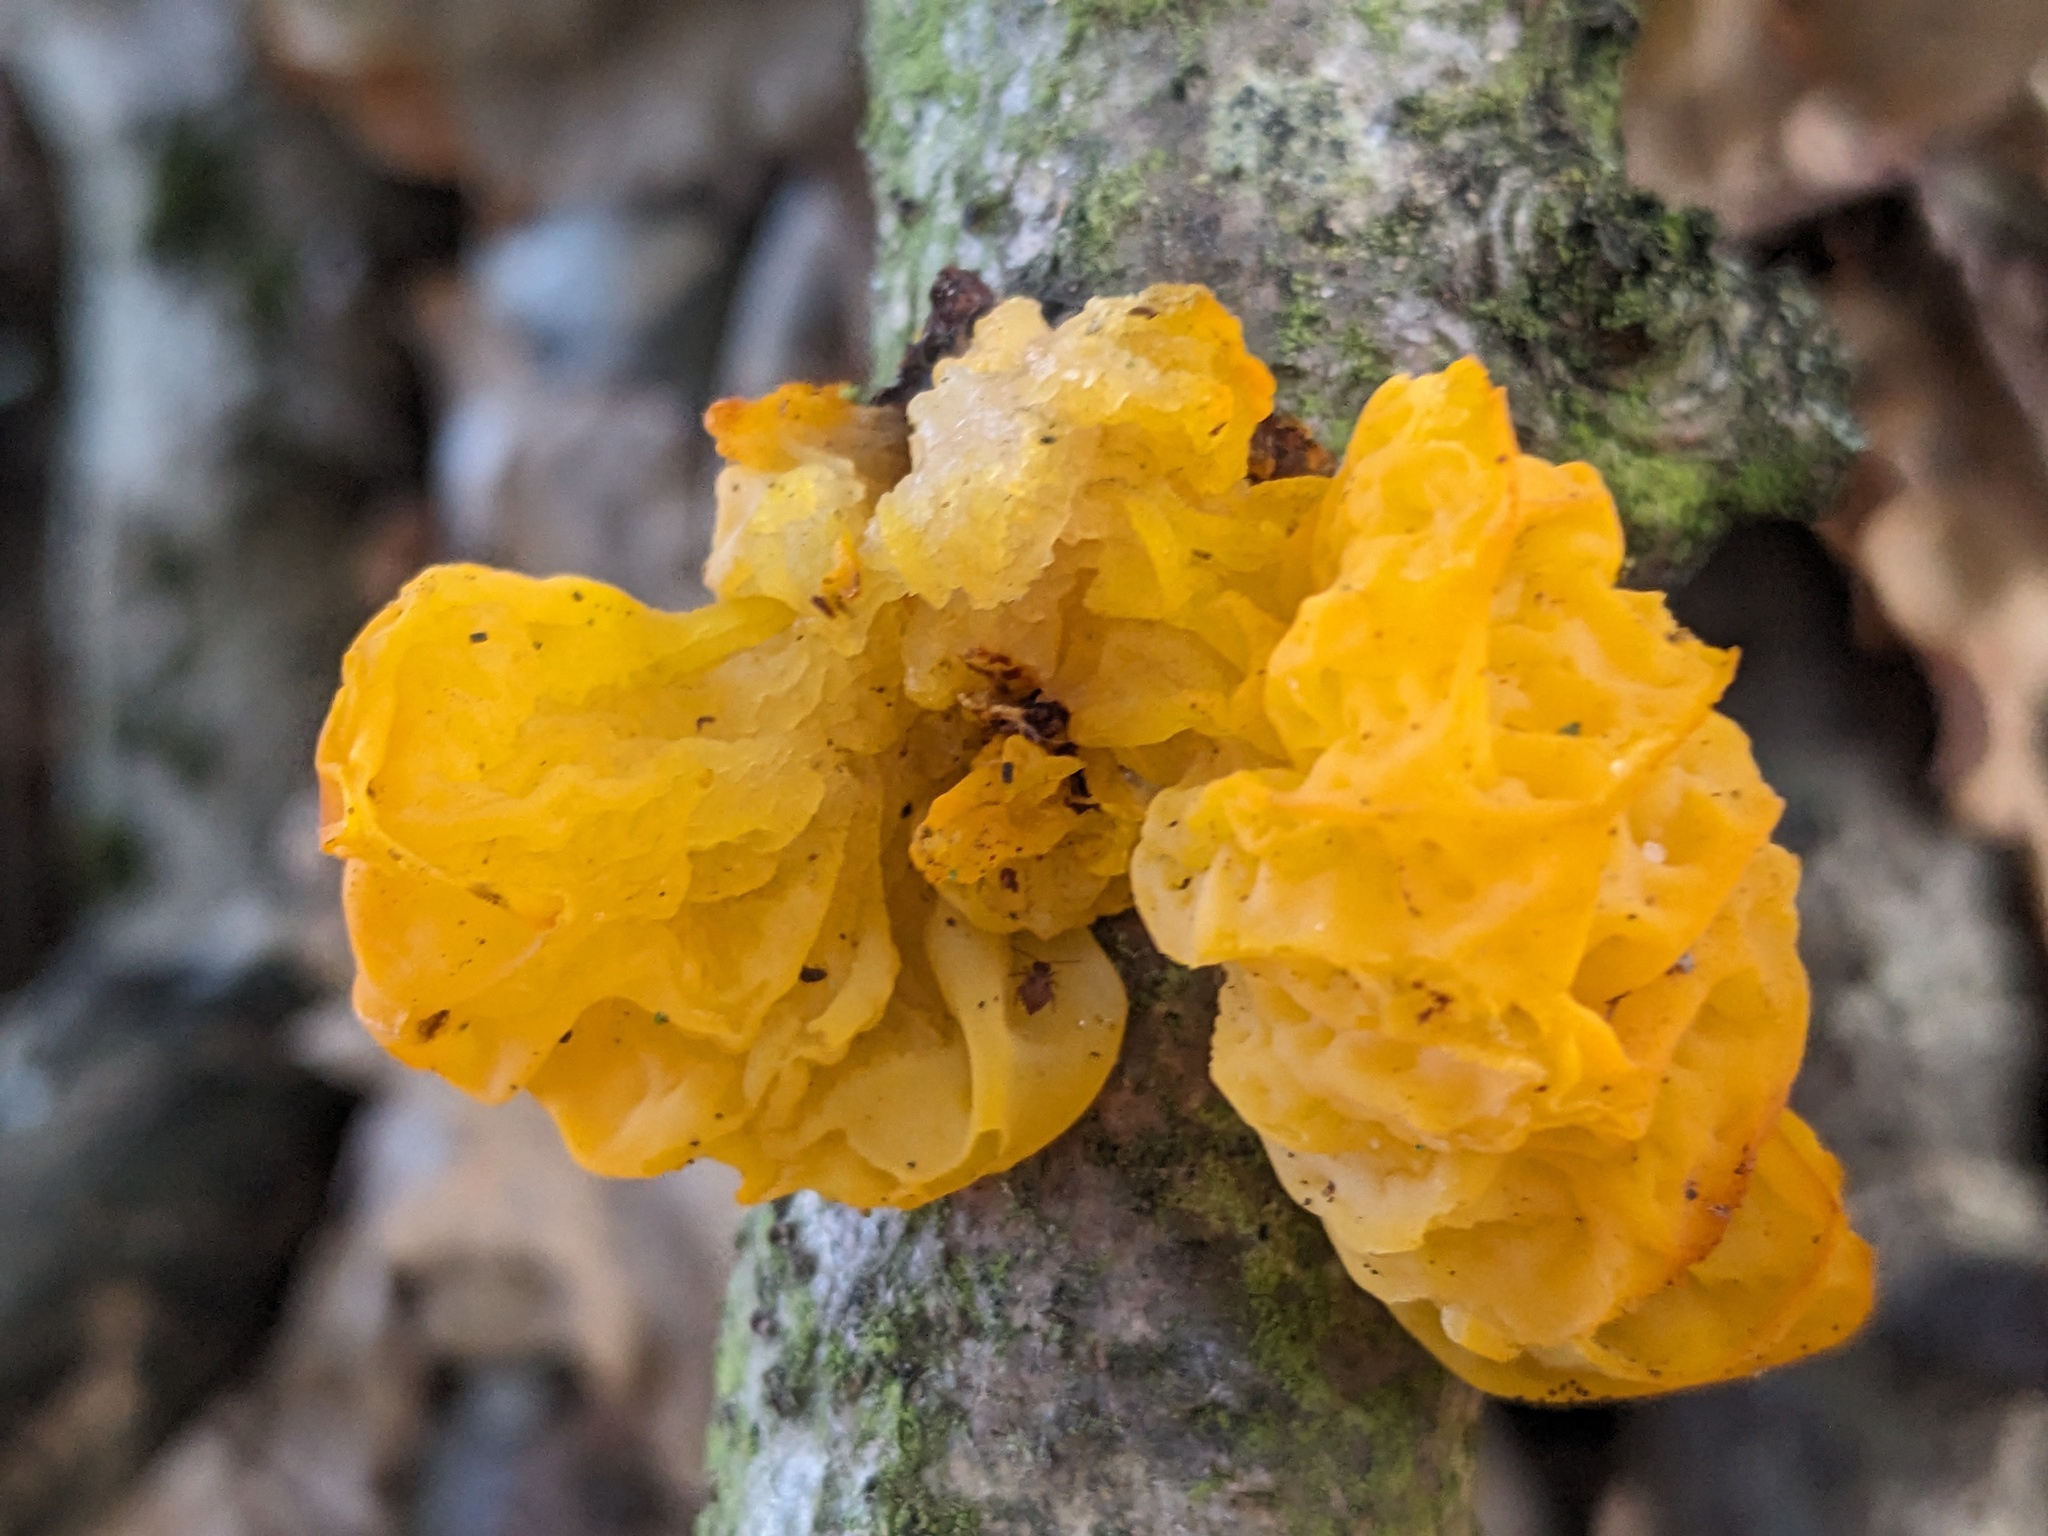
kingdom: Fungi
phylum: Basidiomycota
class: Tremellomycetes
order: Tremellales
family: Tremellaceae
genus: Tremella
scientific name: Tremella mesenterica
